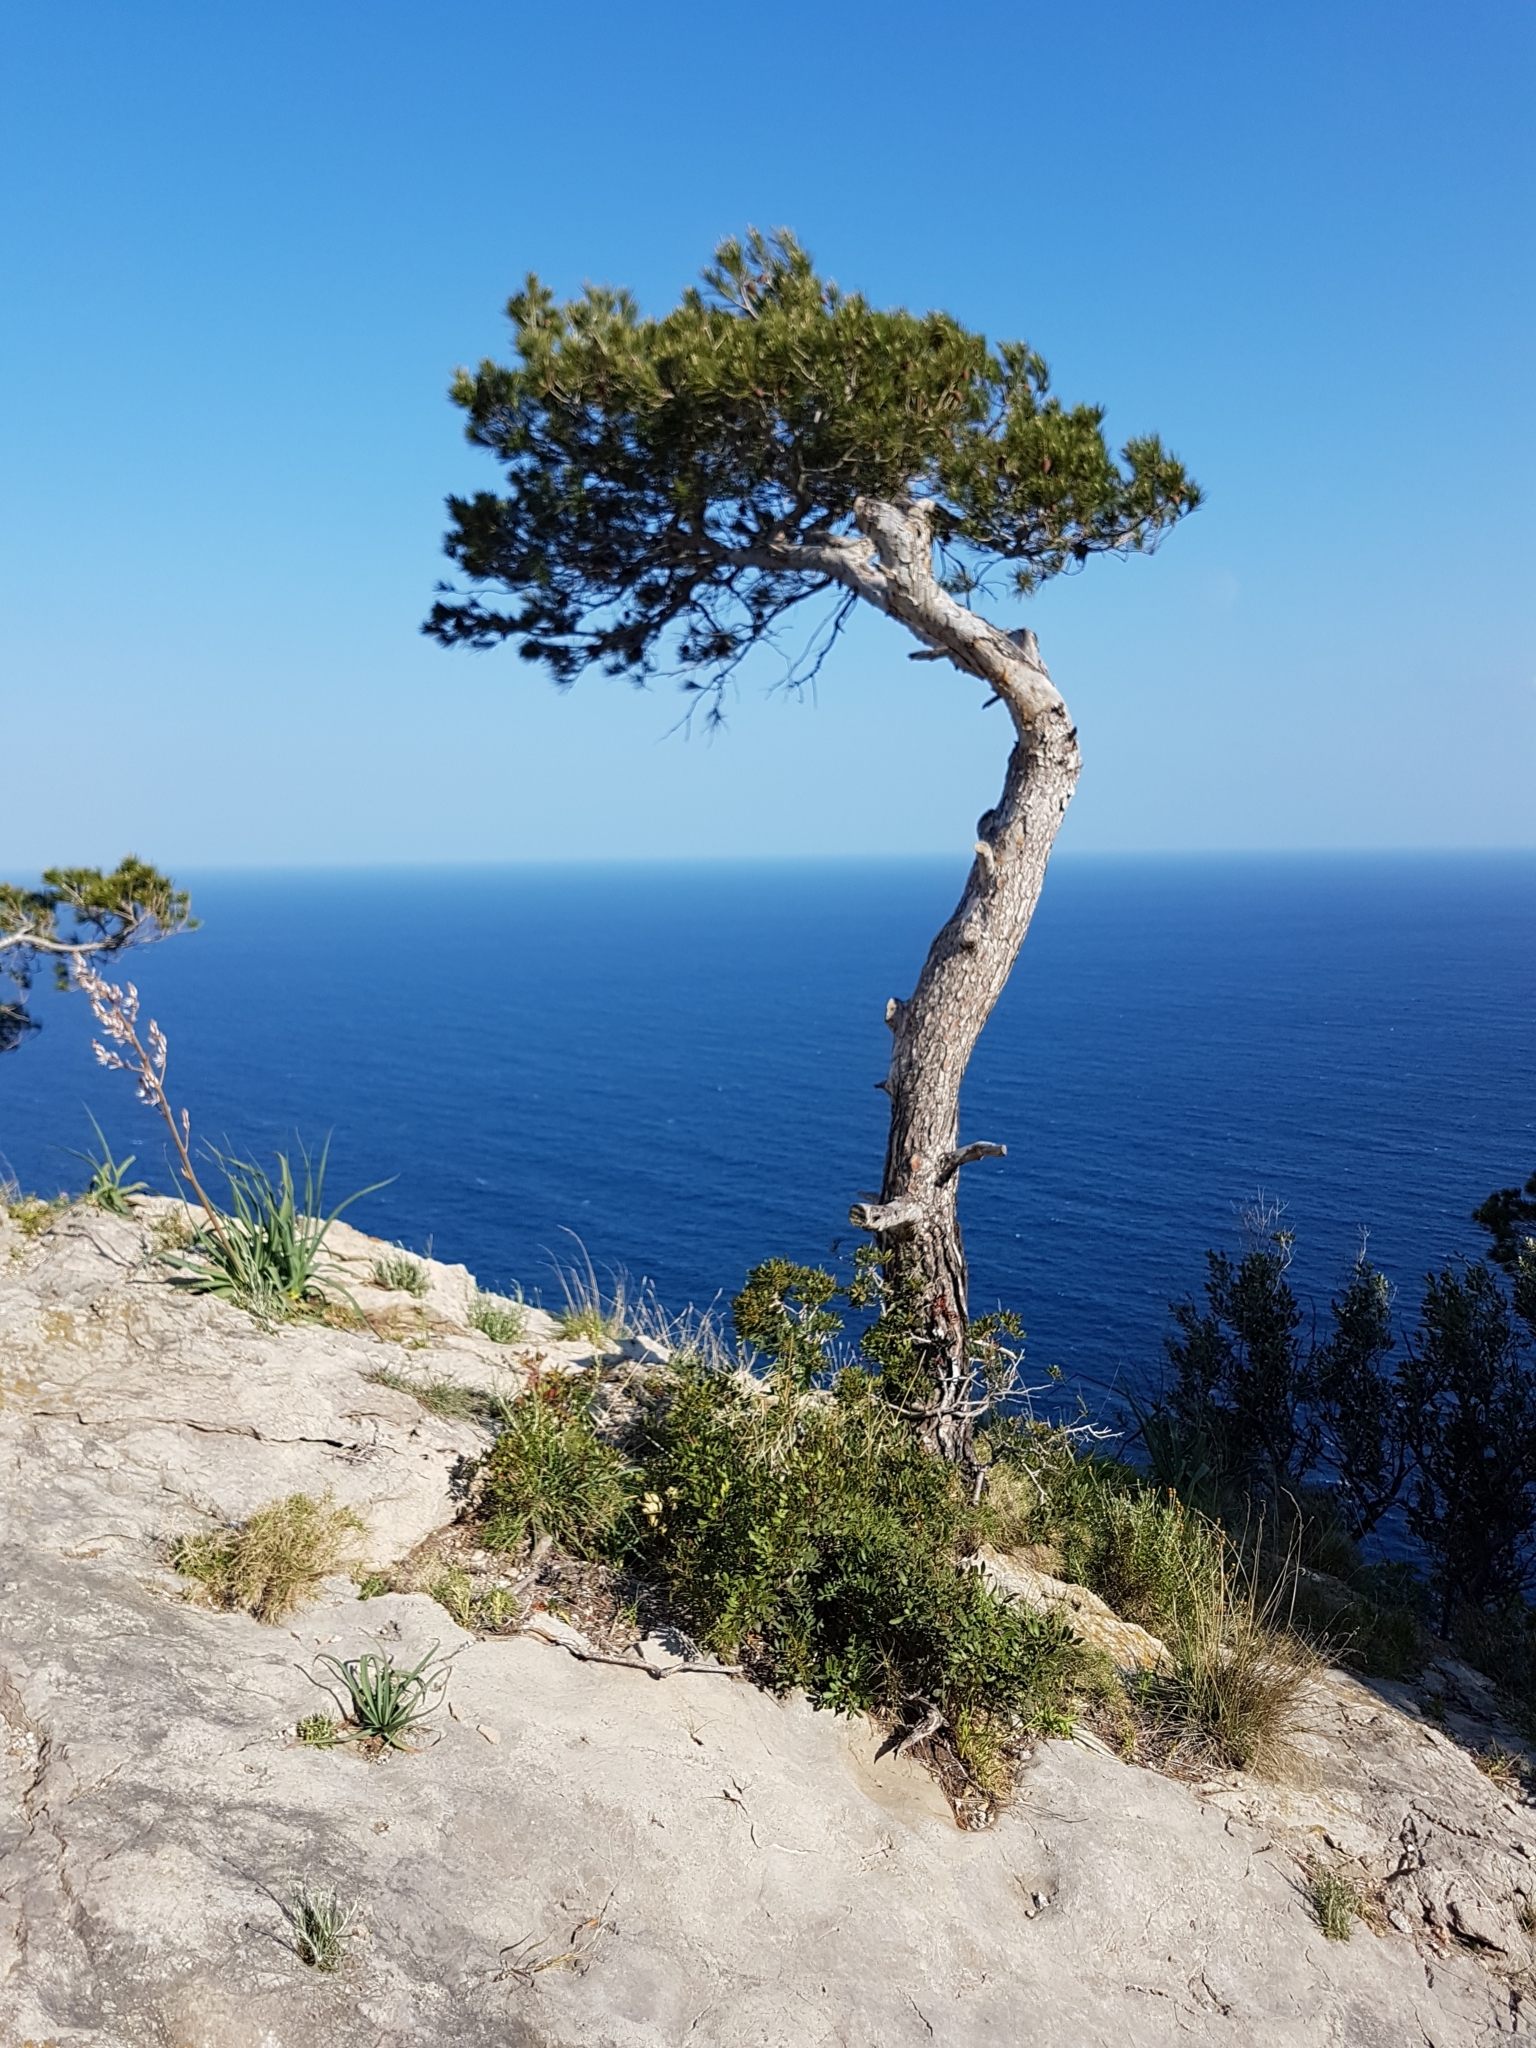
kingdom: Plantae
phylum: Tracheophyta
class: Pinopsida
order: Pinales
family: Pinaceae
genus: Pinus
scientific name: Pinus halepensis
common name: Aleppo pine
